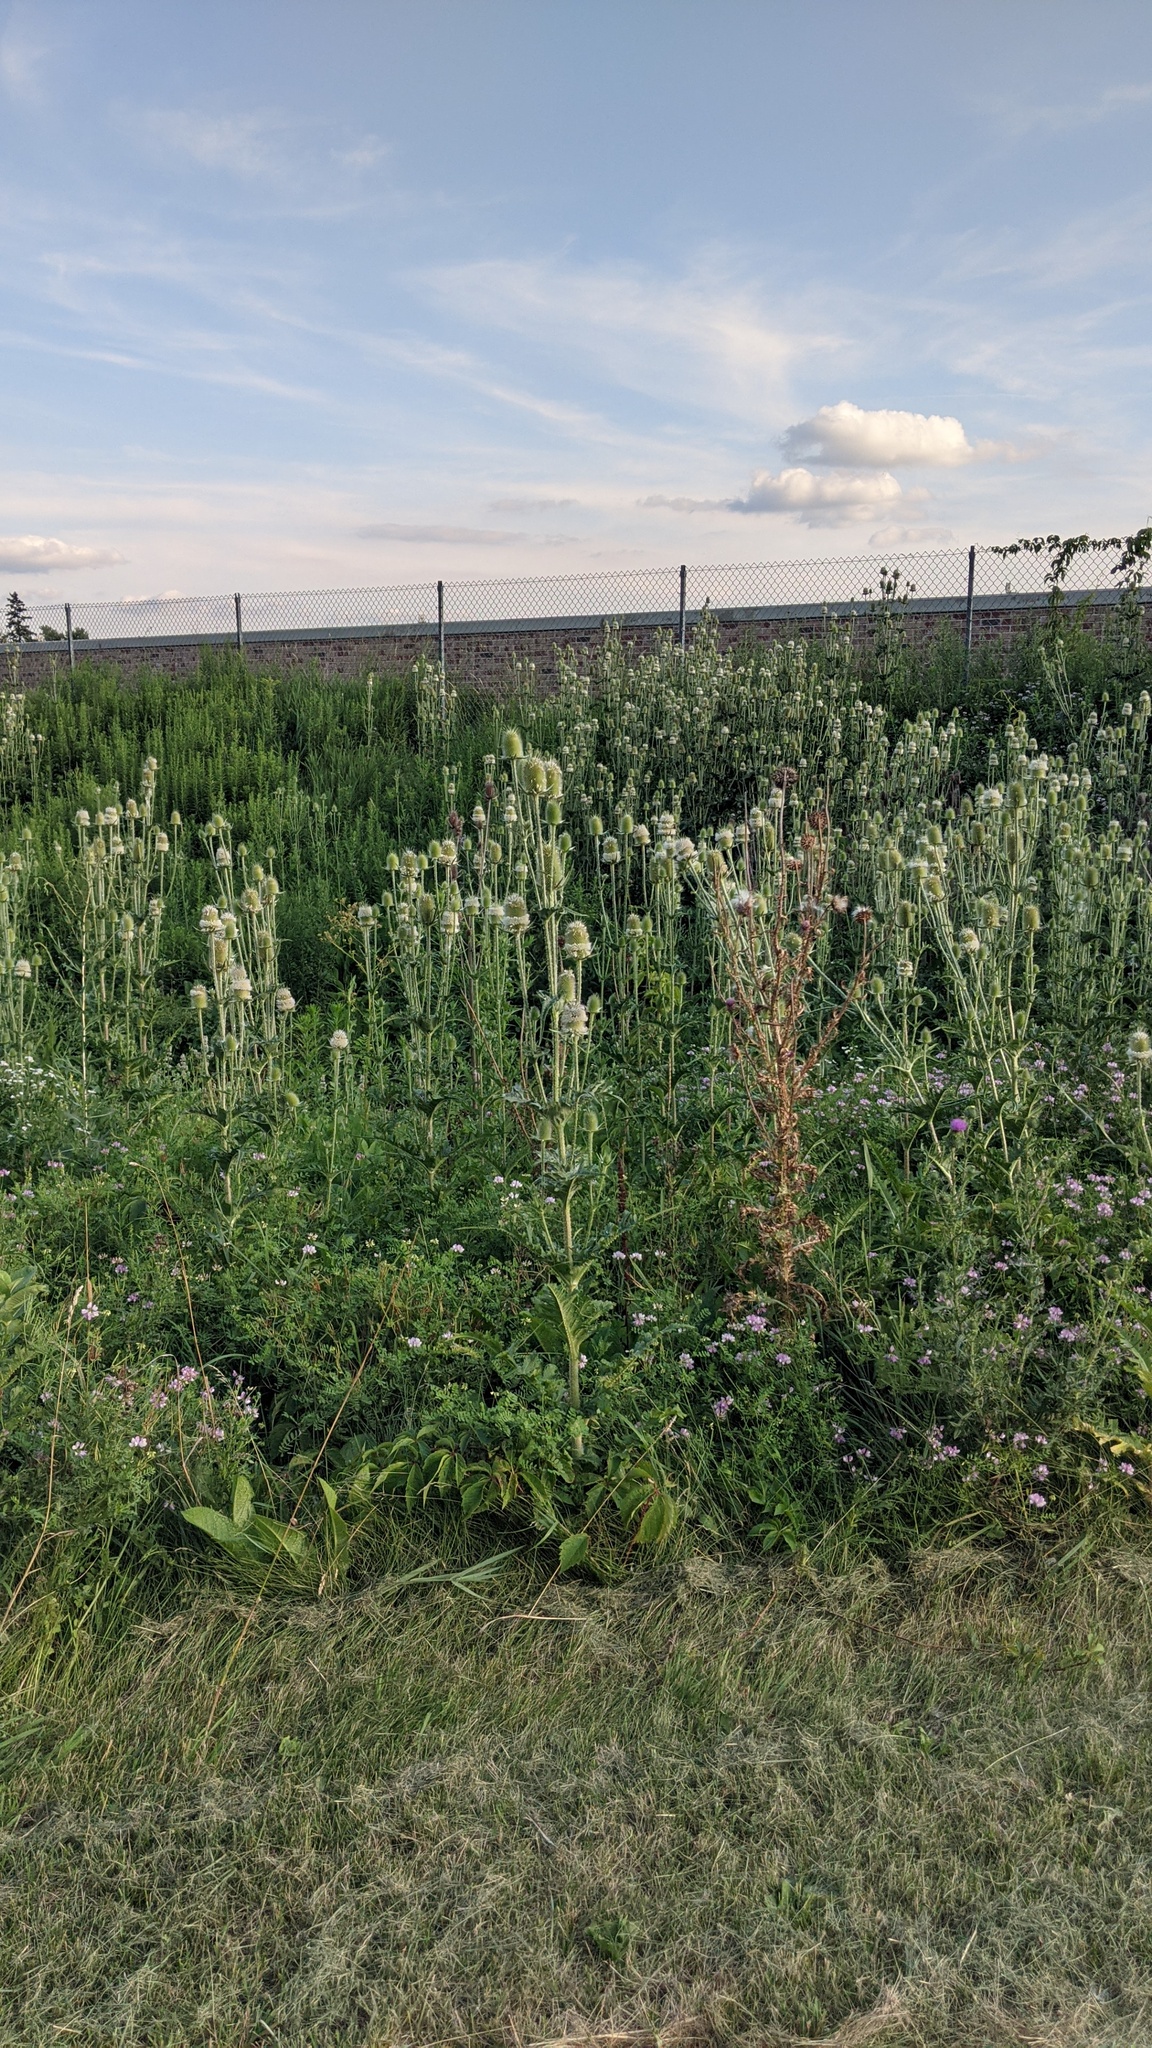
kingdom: Plantae
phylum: Tracheophyta
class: Magnoliopsida
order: Dipsacales
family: Caprifoliaceae
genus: Dipsacus
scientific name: Dipsacus laciniatus
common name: Cut-leaved teasel
